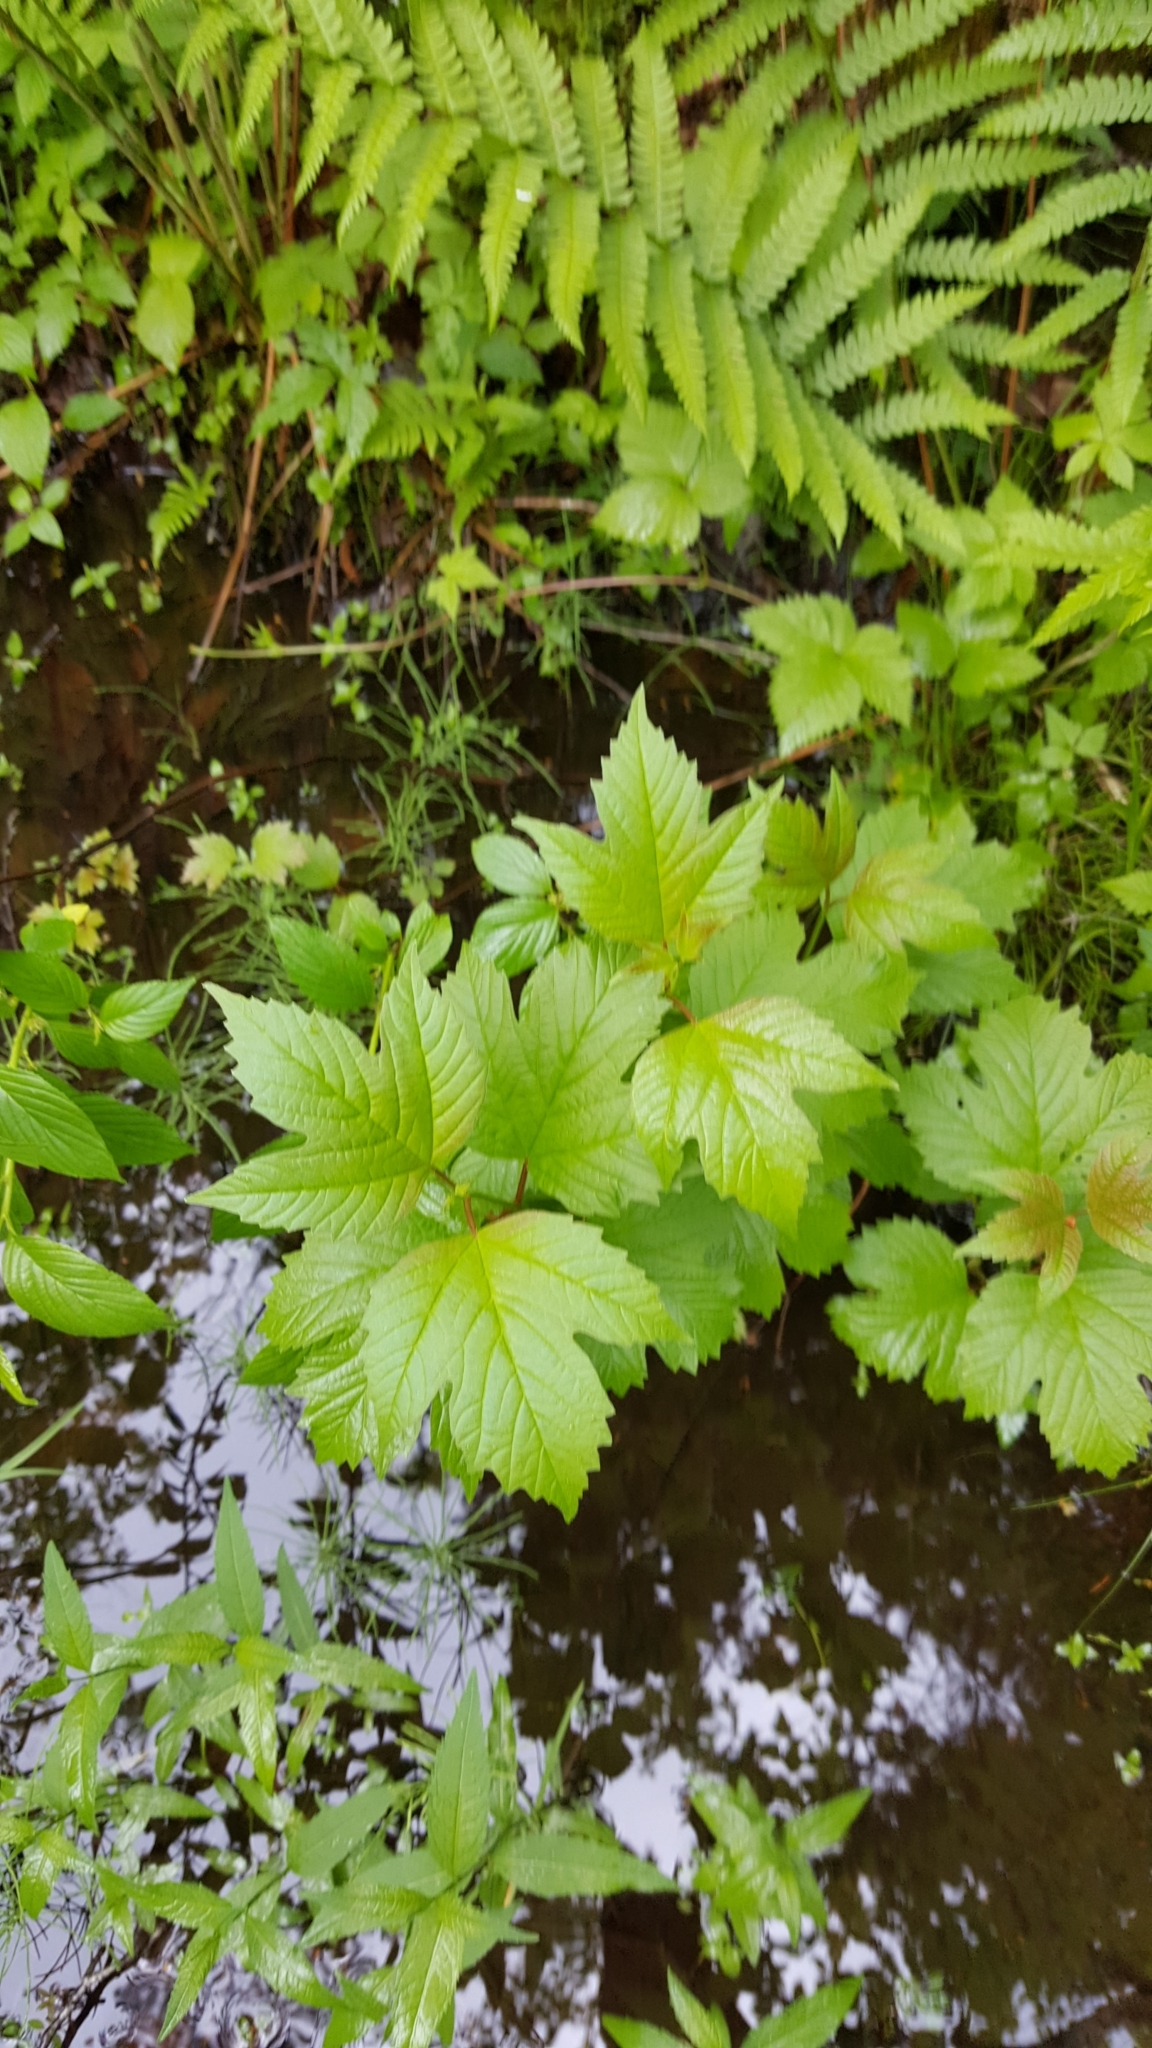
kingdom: Plantae
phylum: Tracheophyta
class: Magnoliopsida
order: Dipsacales
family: Viburnaceae
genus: Viburnum
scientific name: Viburnum opulus
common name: Guelder-rose
